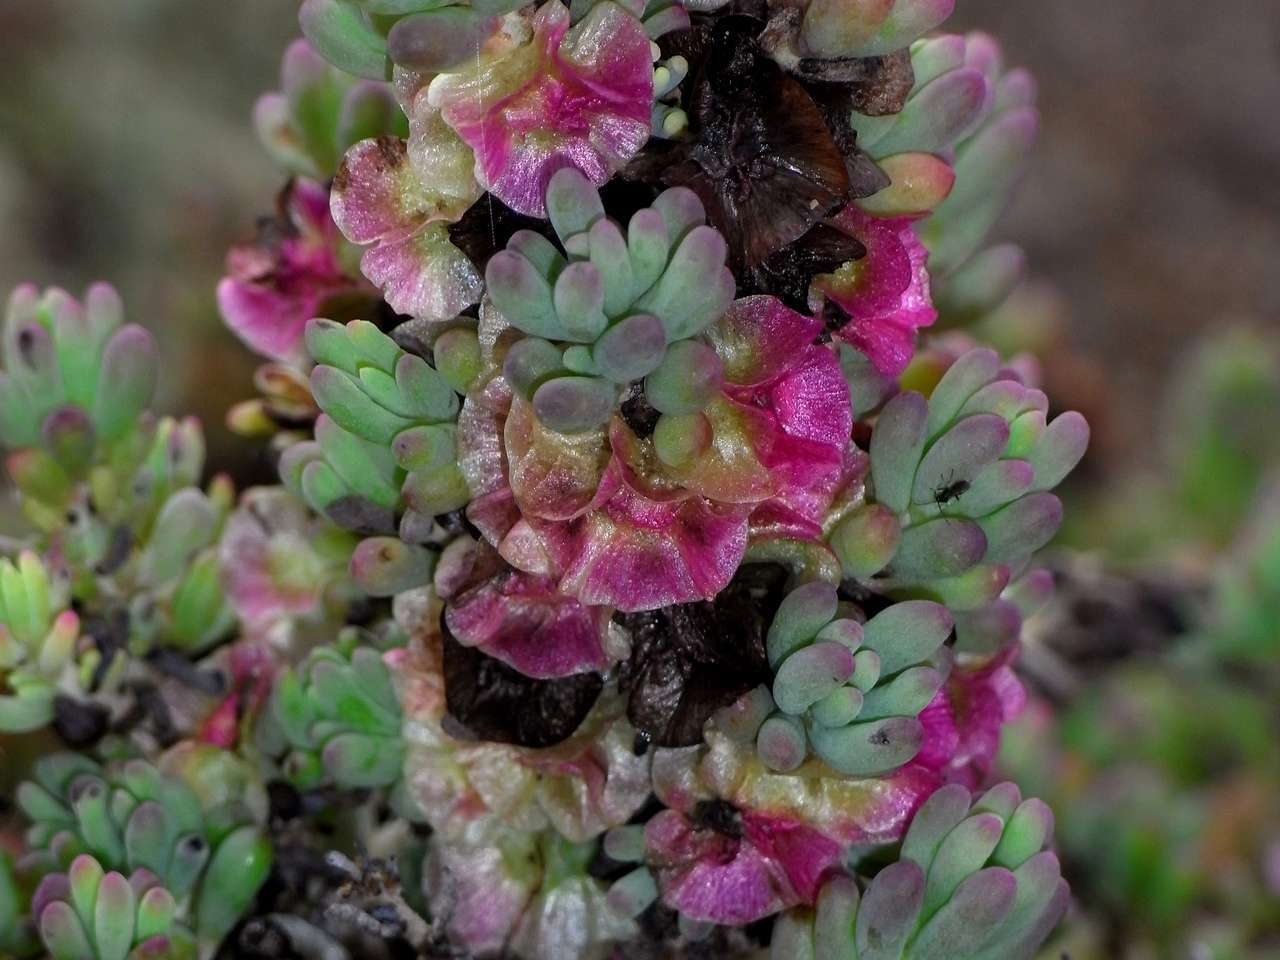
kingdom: Plantae
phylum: Tracheophyta
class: Magnoliopsida
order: Caryophyllales
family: Amaranthaceae
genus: Maireana
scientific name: Maireana erioclada
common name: Rosy bluebush
